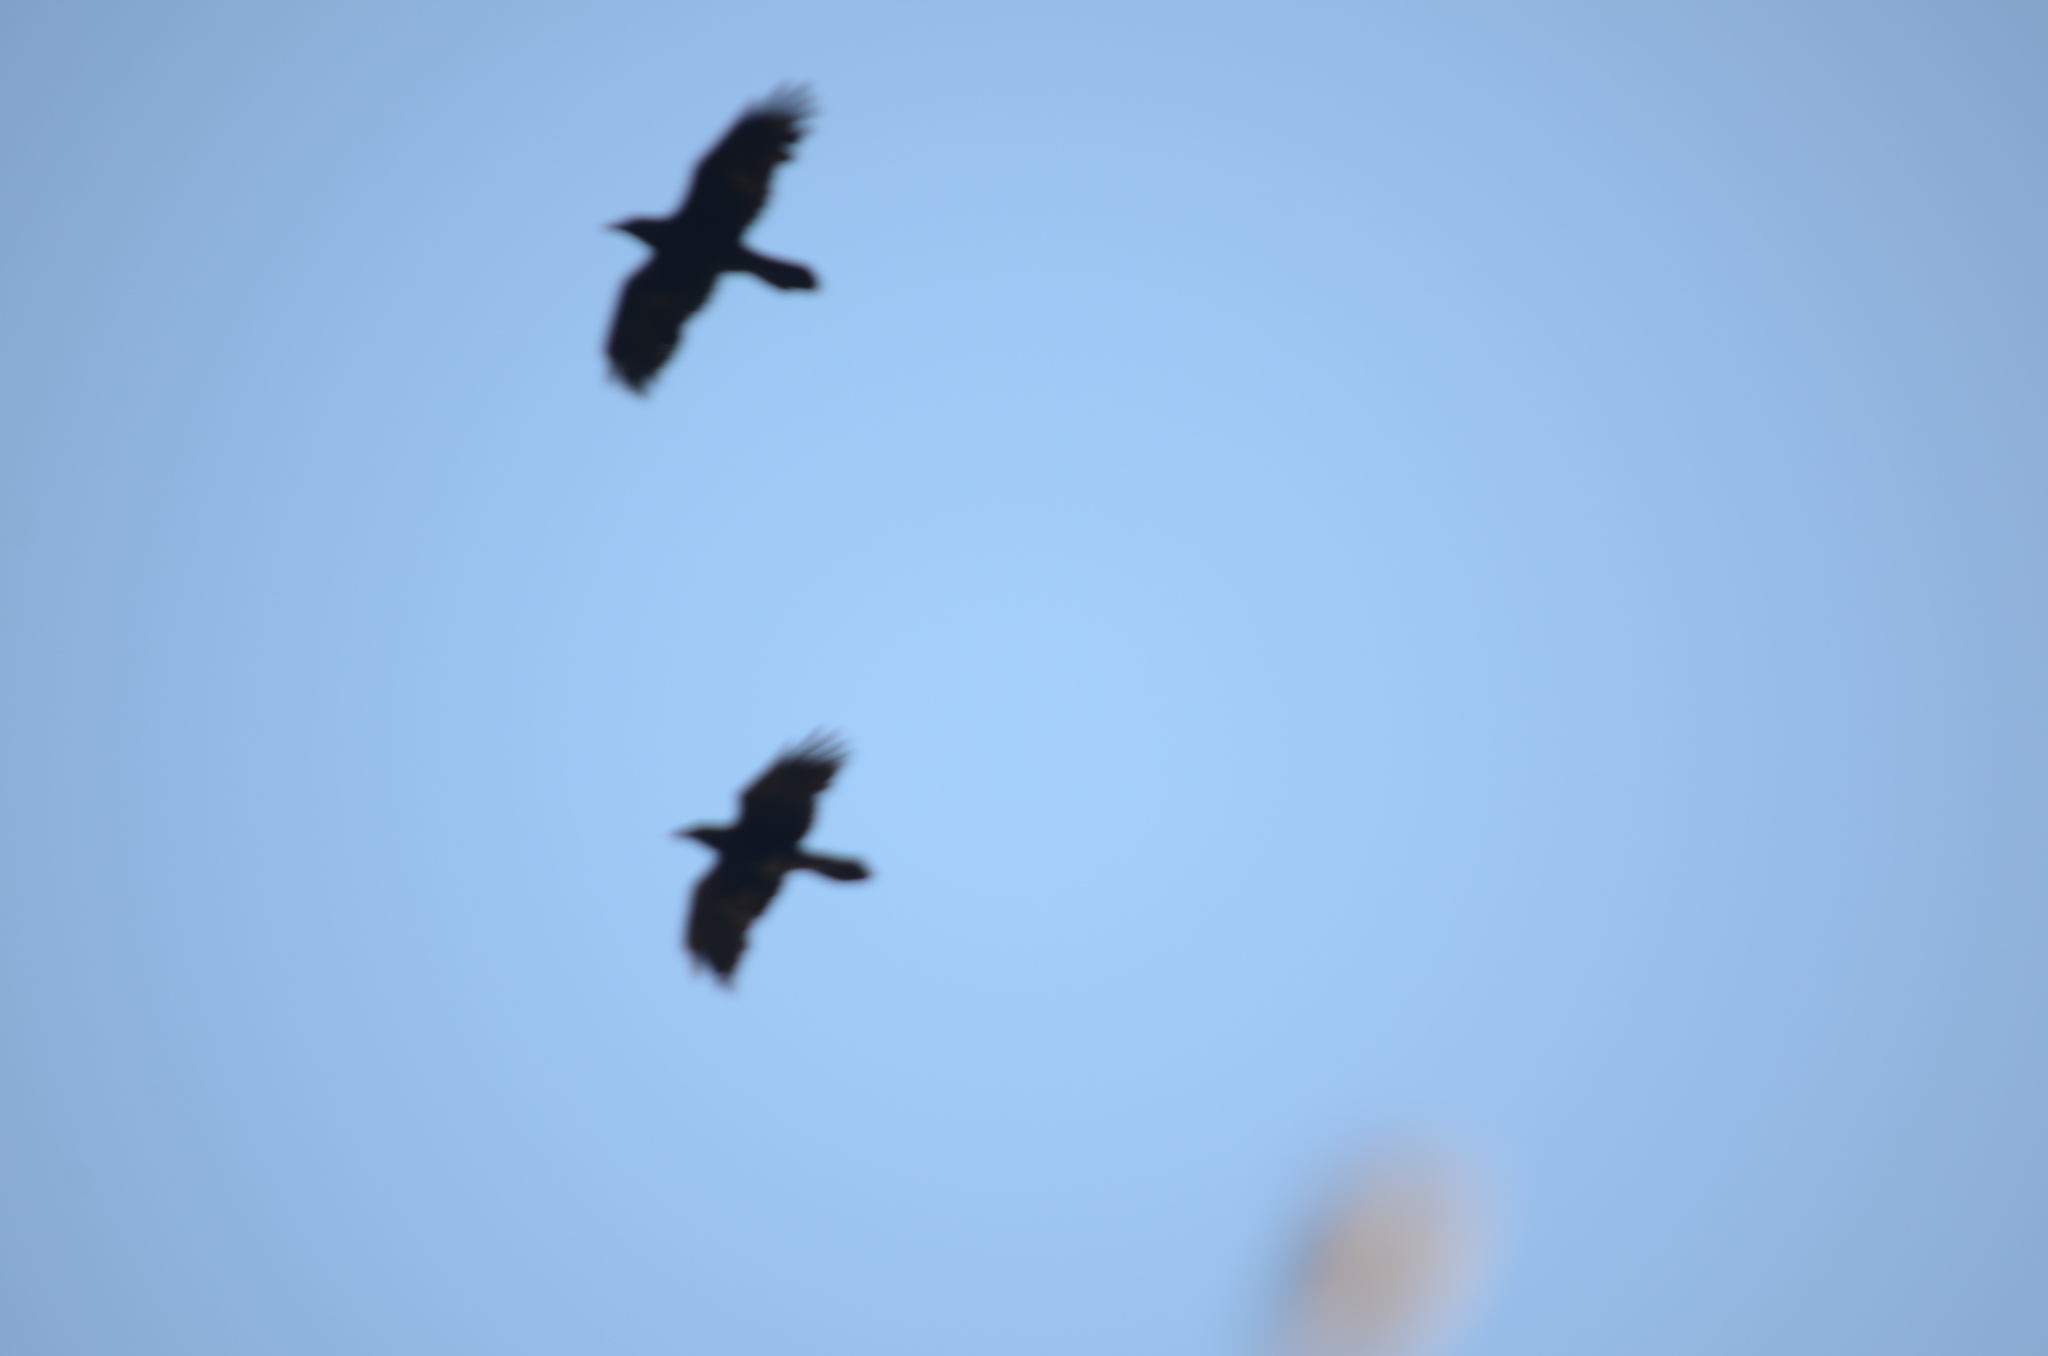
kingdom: Animalia
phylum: Chordata
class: Aves
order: Passeriformes
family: Corvidae
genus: Corvus
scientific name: Corvus corax
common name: Common raven
